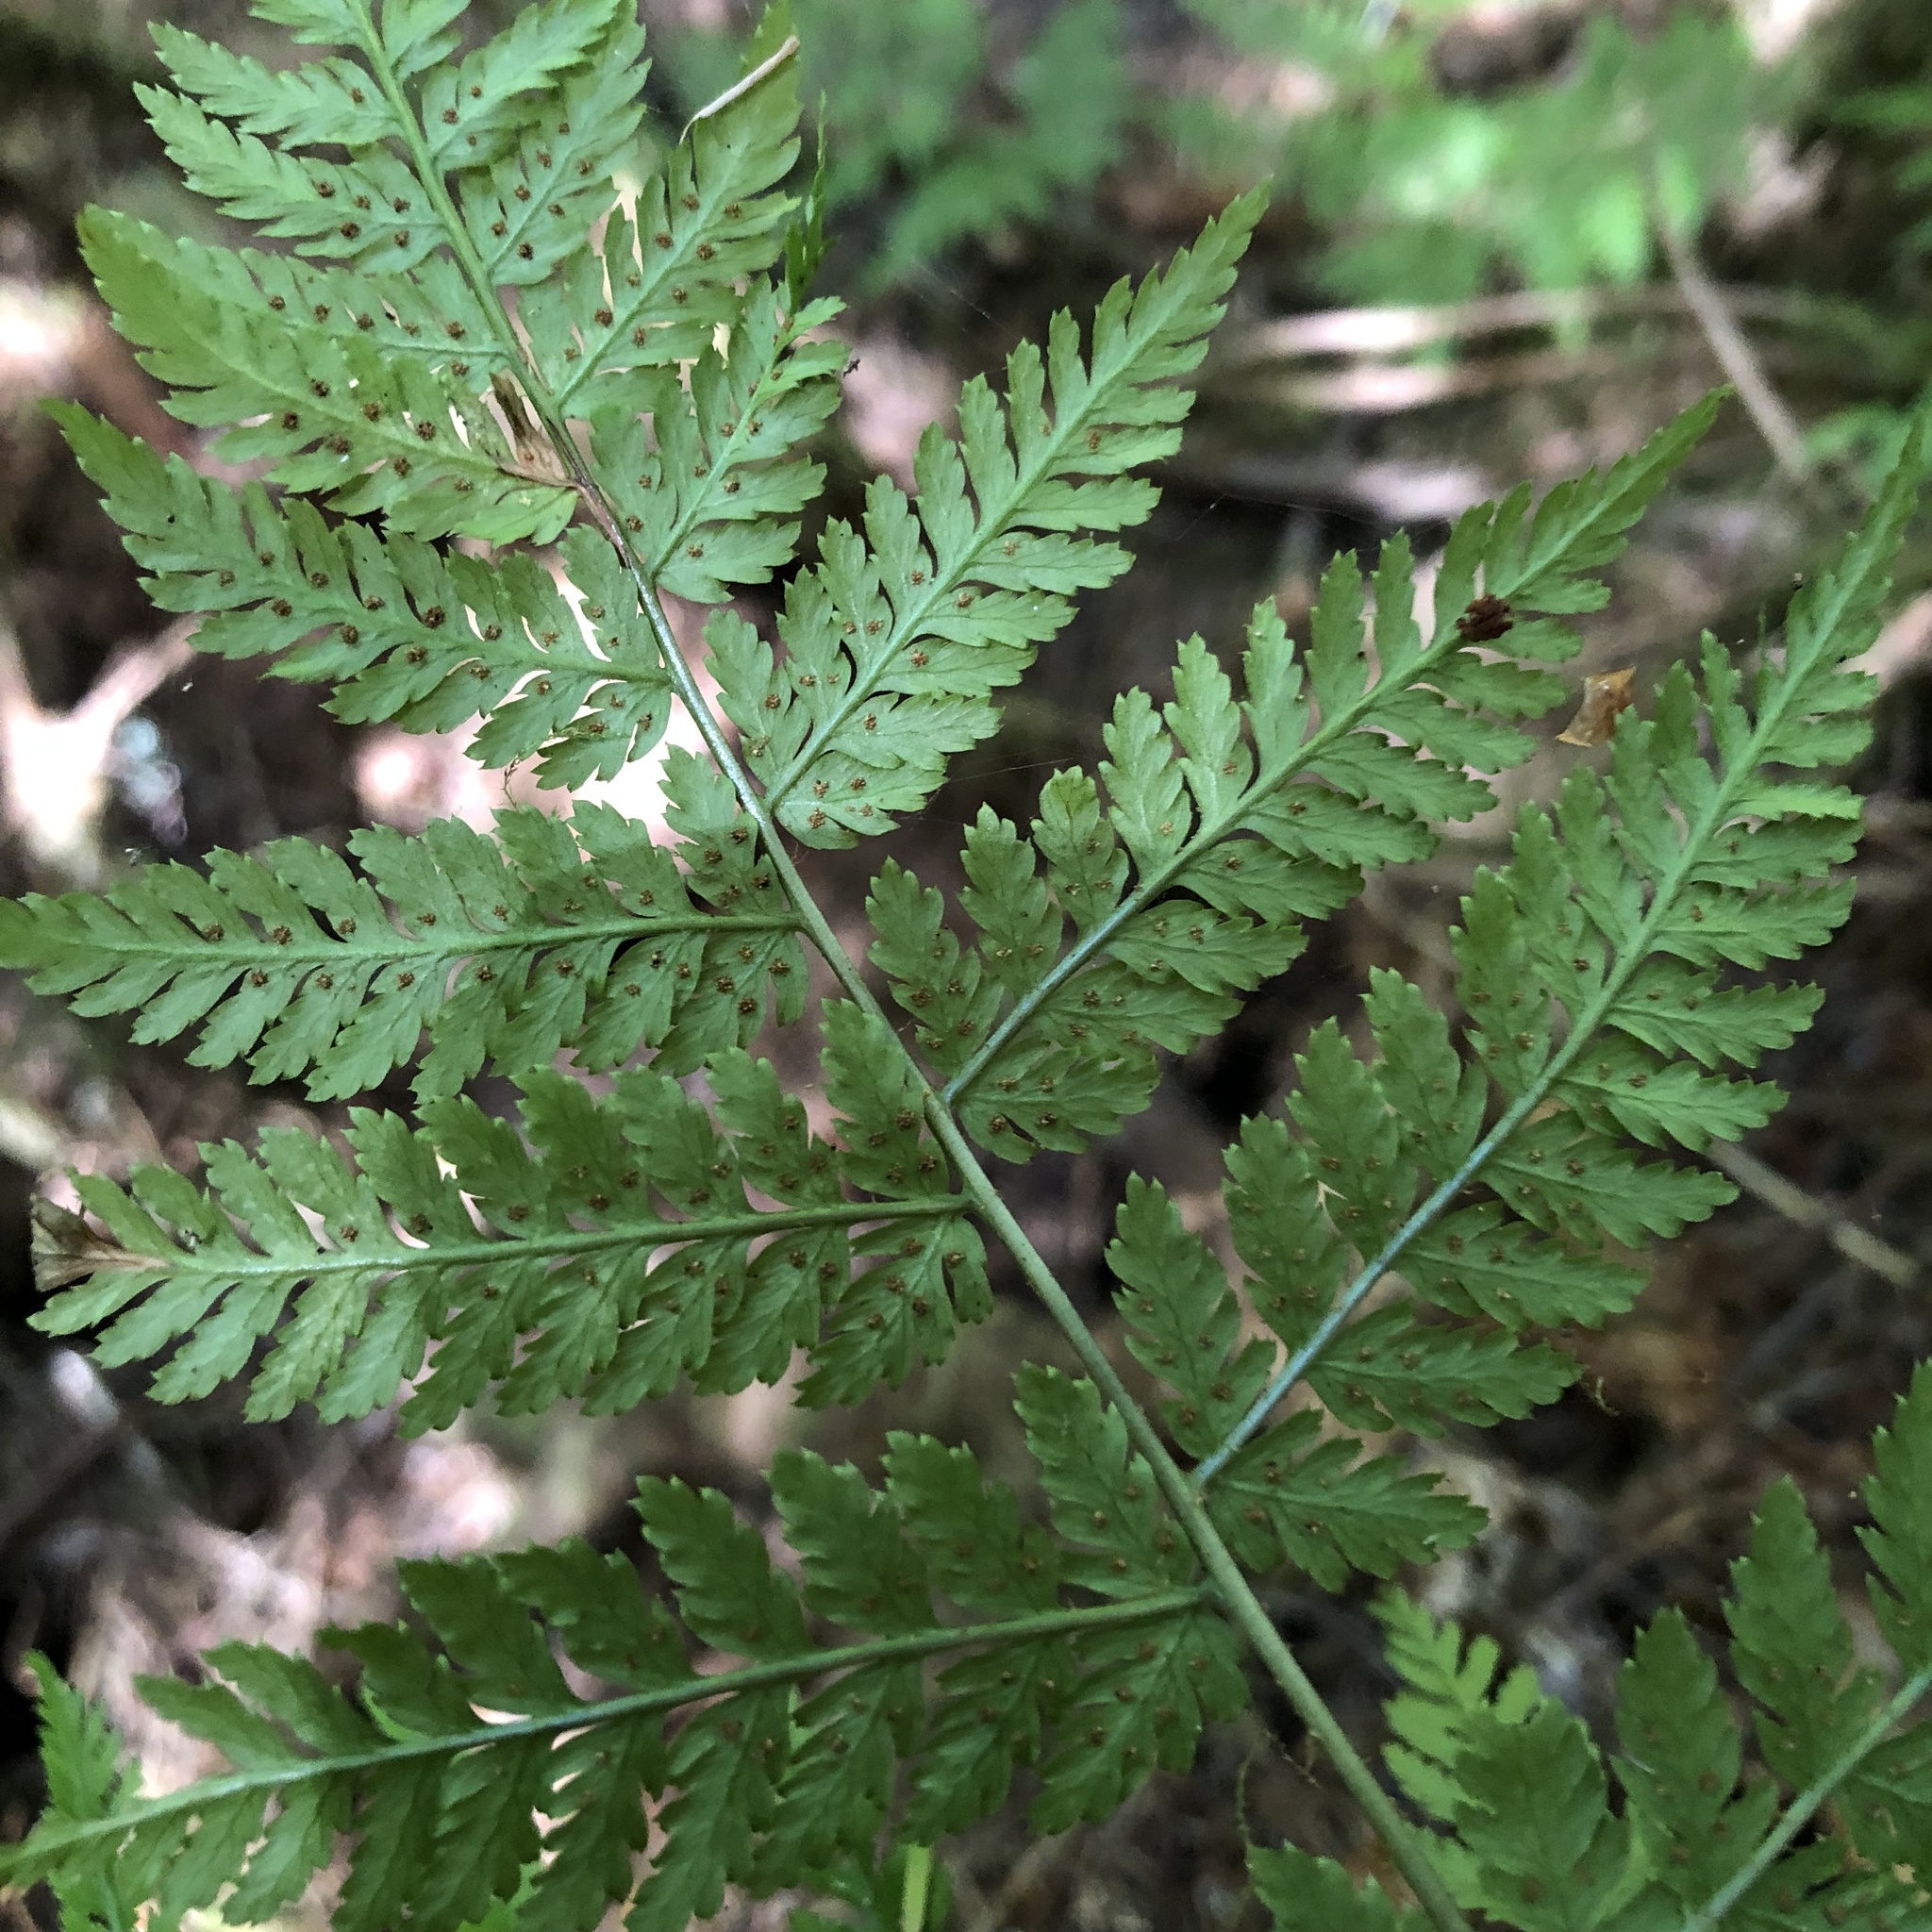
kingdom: Plantae
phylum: Tracheophyta
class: Polypodiopsida
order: Polypodiales
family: Dryopteridaceae
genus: Dryopteris
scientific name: Dryopteris expansa
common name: Northern buckler fern
